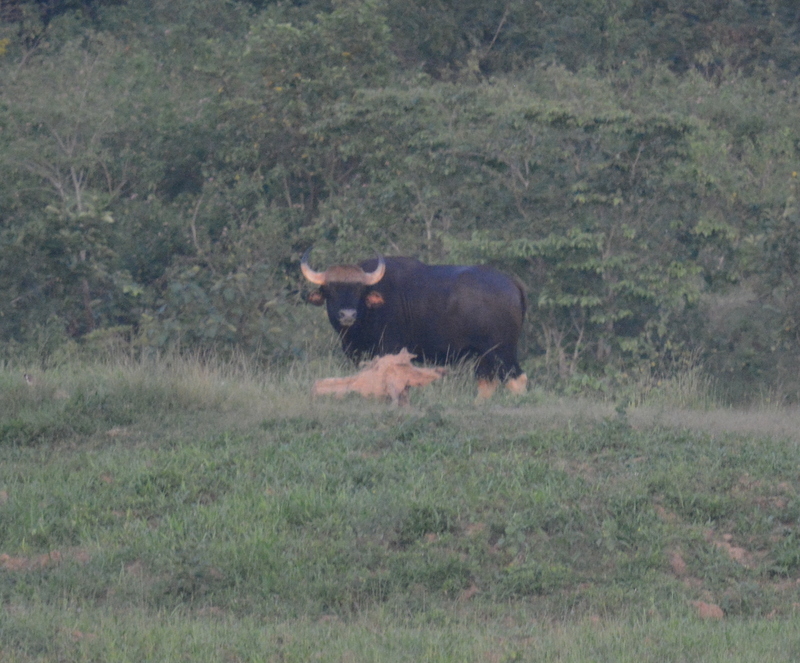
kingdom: Animalia
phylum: Chordata
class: Mammalia
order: Artiodactyla
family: Bovidae
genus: Bos
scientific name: Bos frontalis
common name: Gaur
